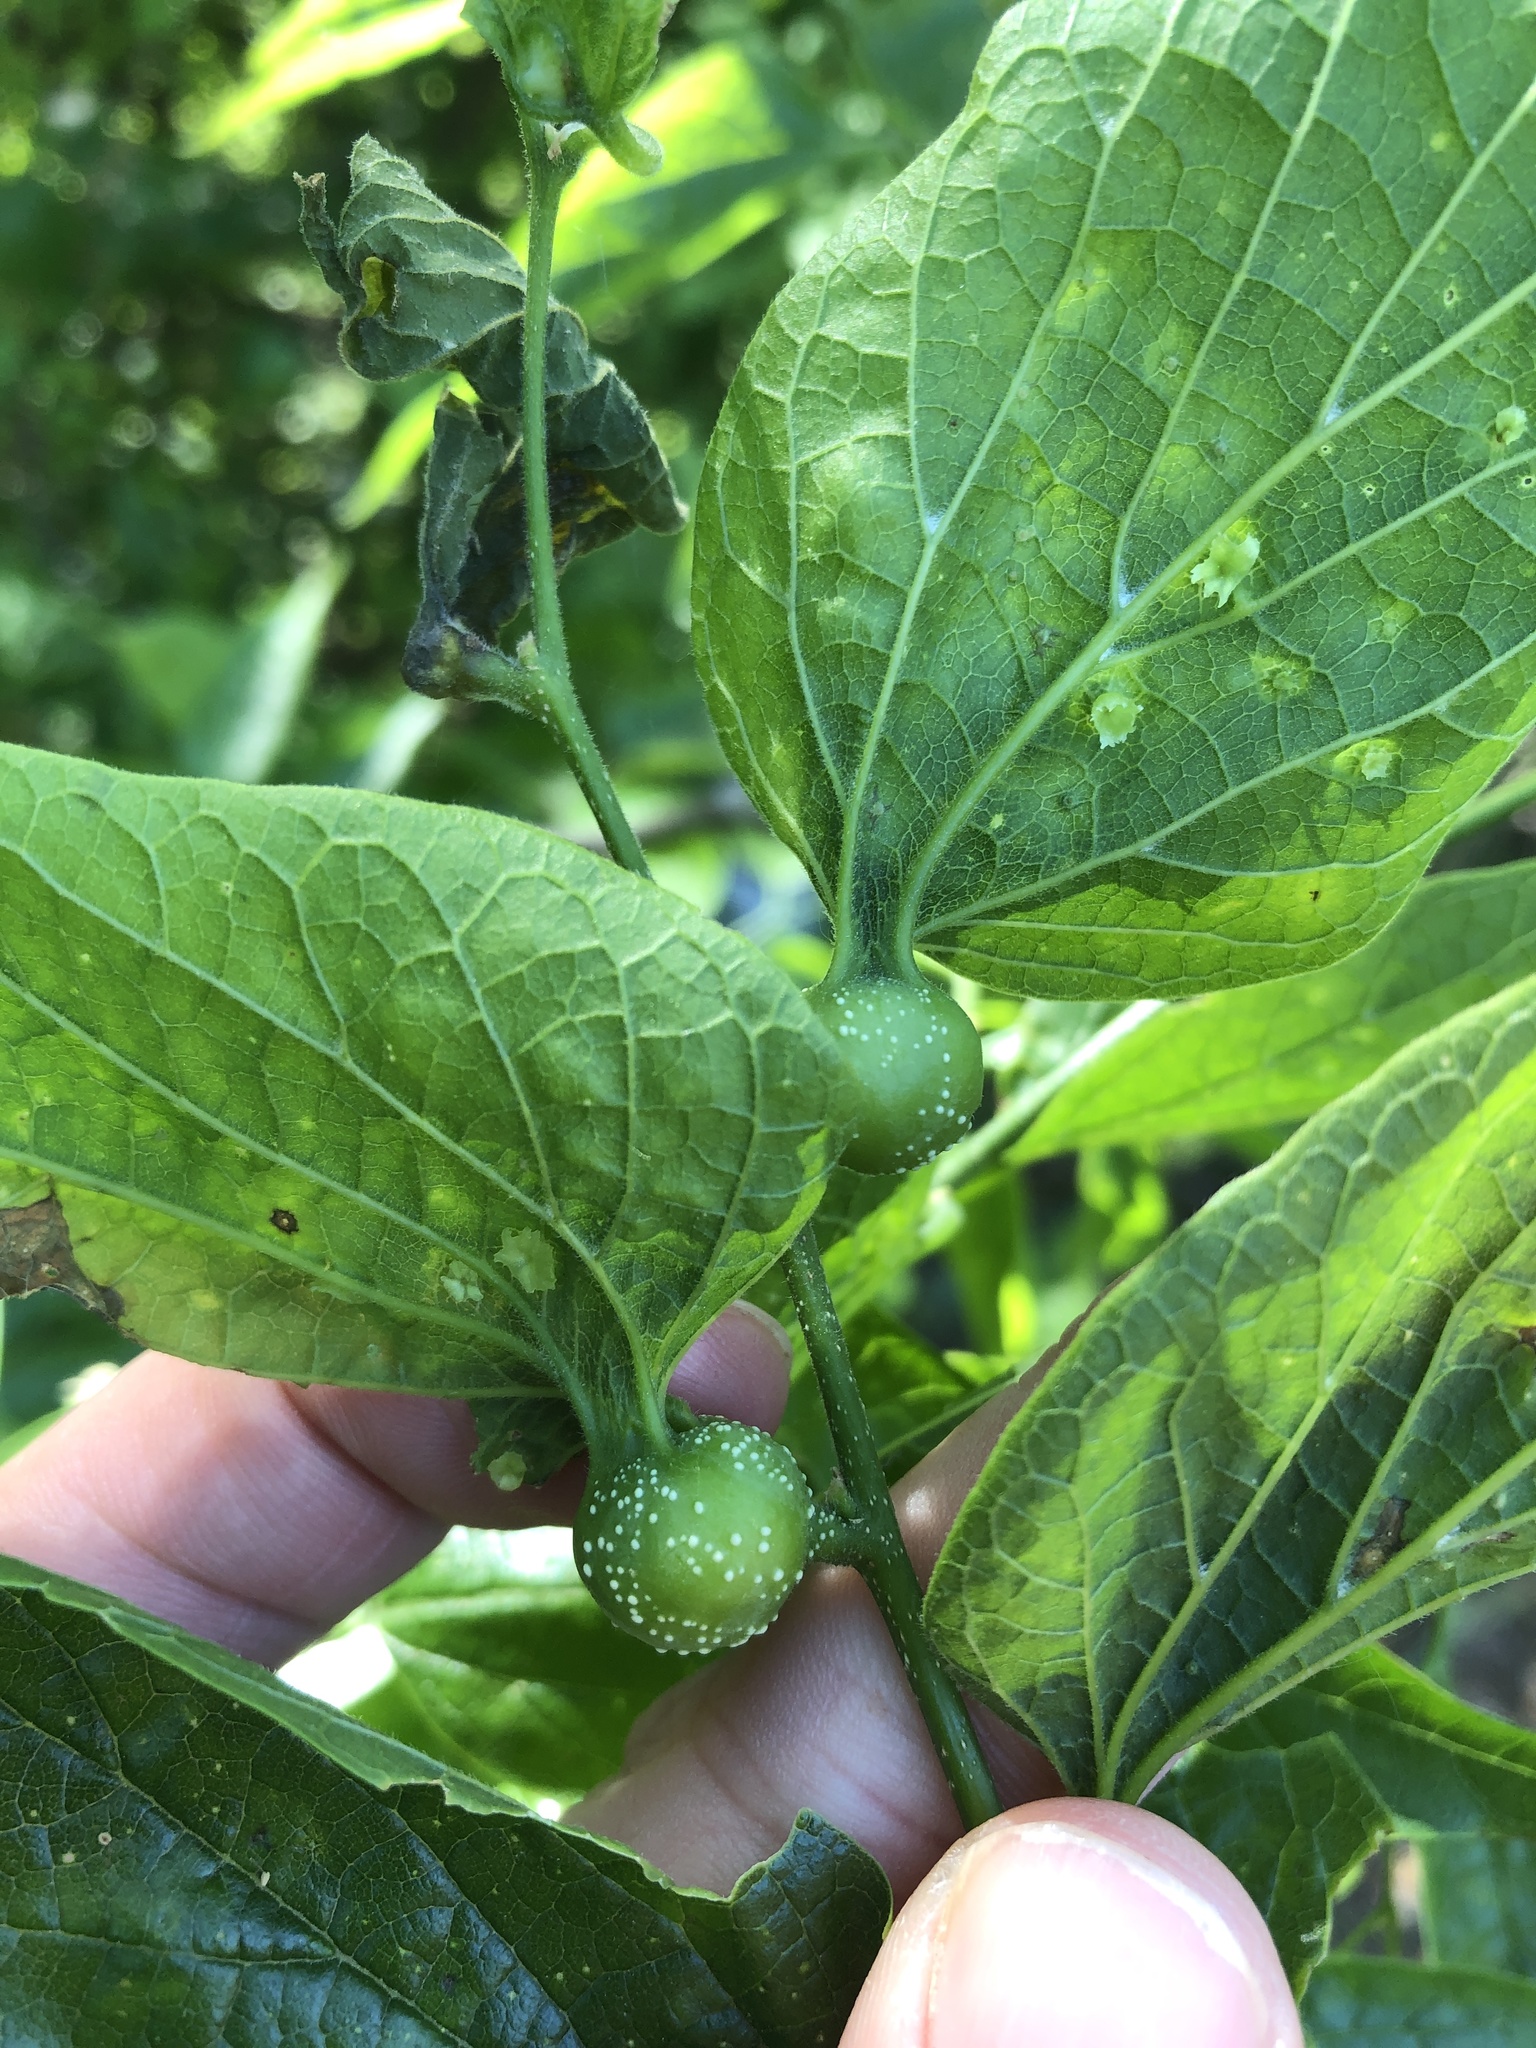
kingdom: Animalia
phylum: Arthropoda
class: Insecta
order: Hemiptera
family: Aphalaridae
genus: Pachypsylla
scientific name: Pachypsylla venusta
